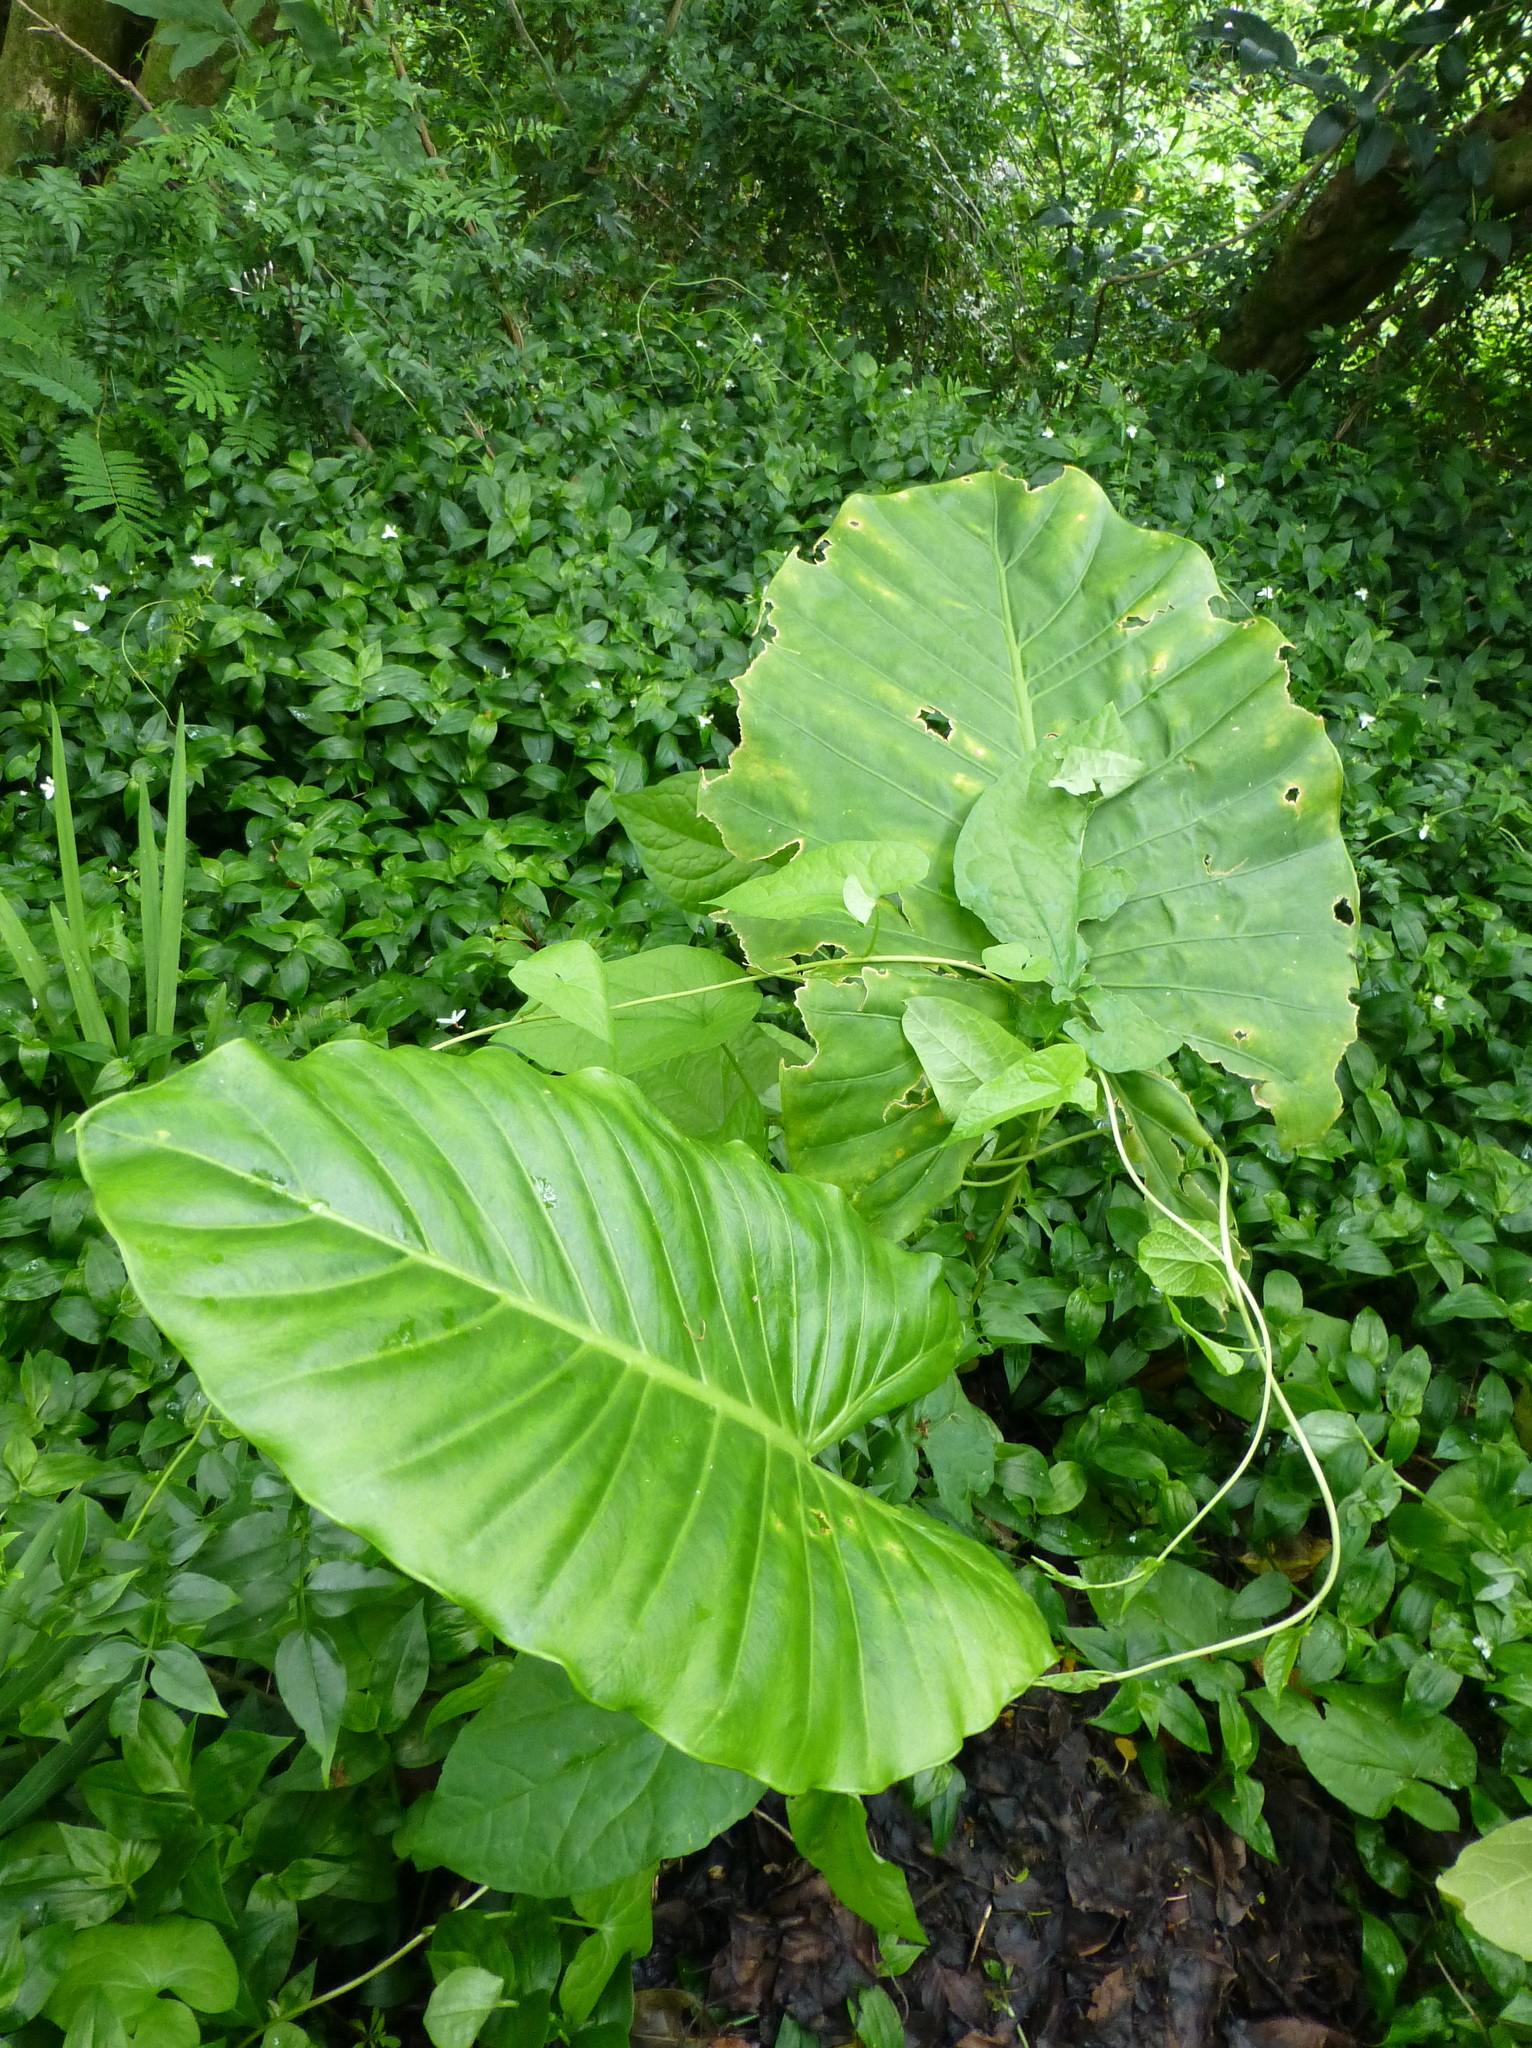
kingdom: Plantae
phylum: Tracheophyta
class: Liliopsida
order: Alismatales
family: Araceae
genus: Alocasia
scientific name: Alocasia brisbanensis
